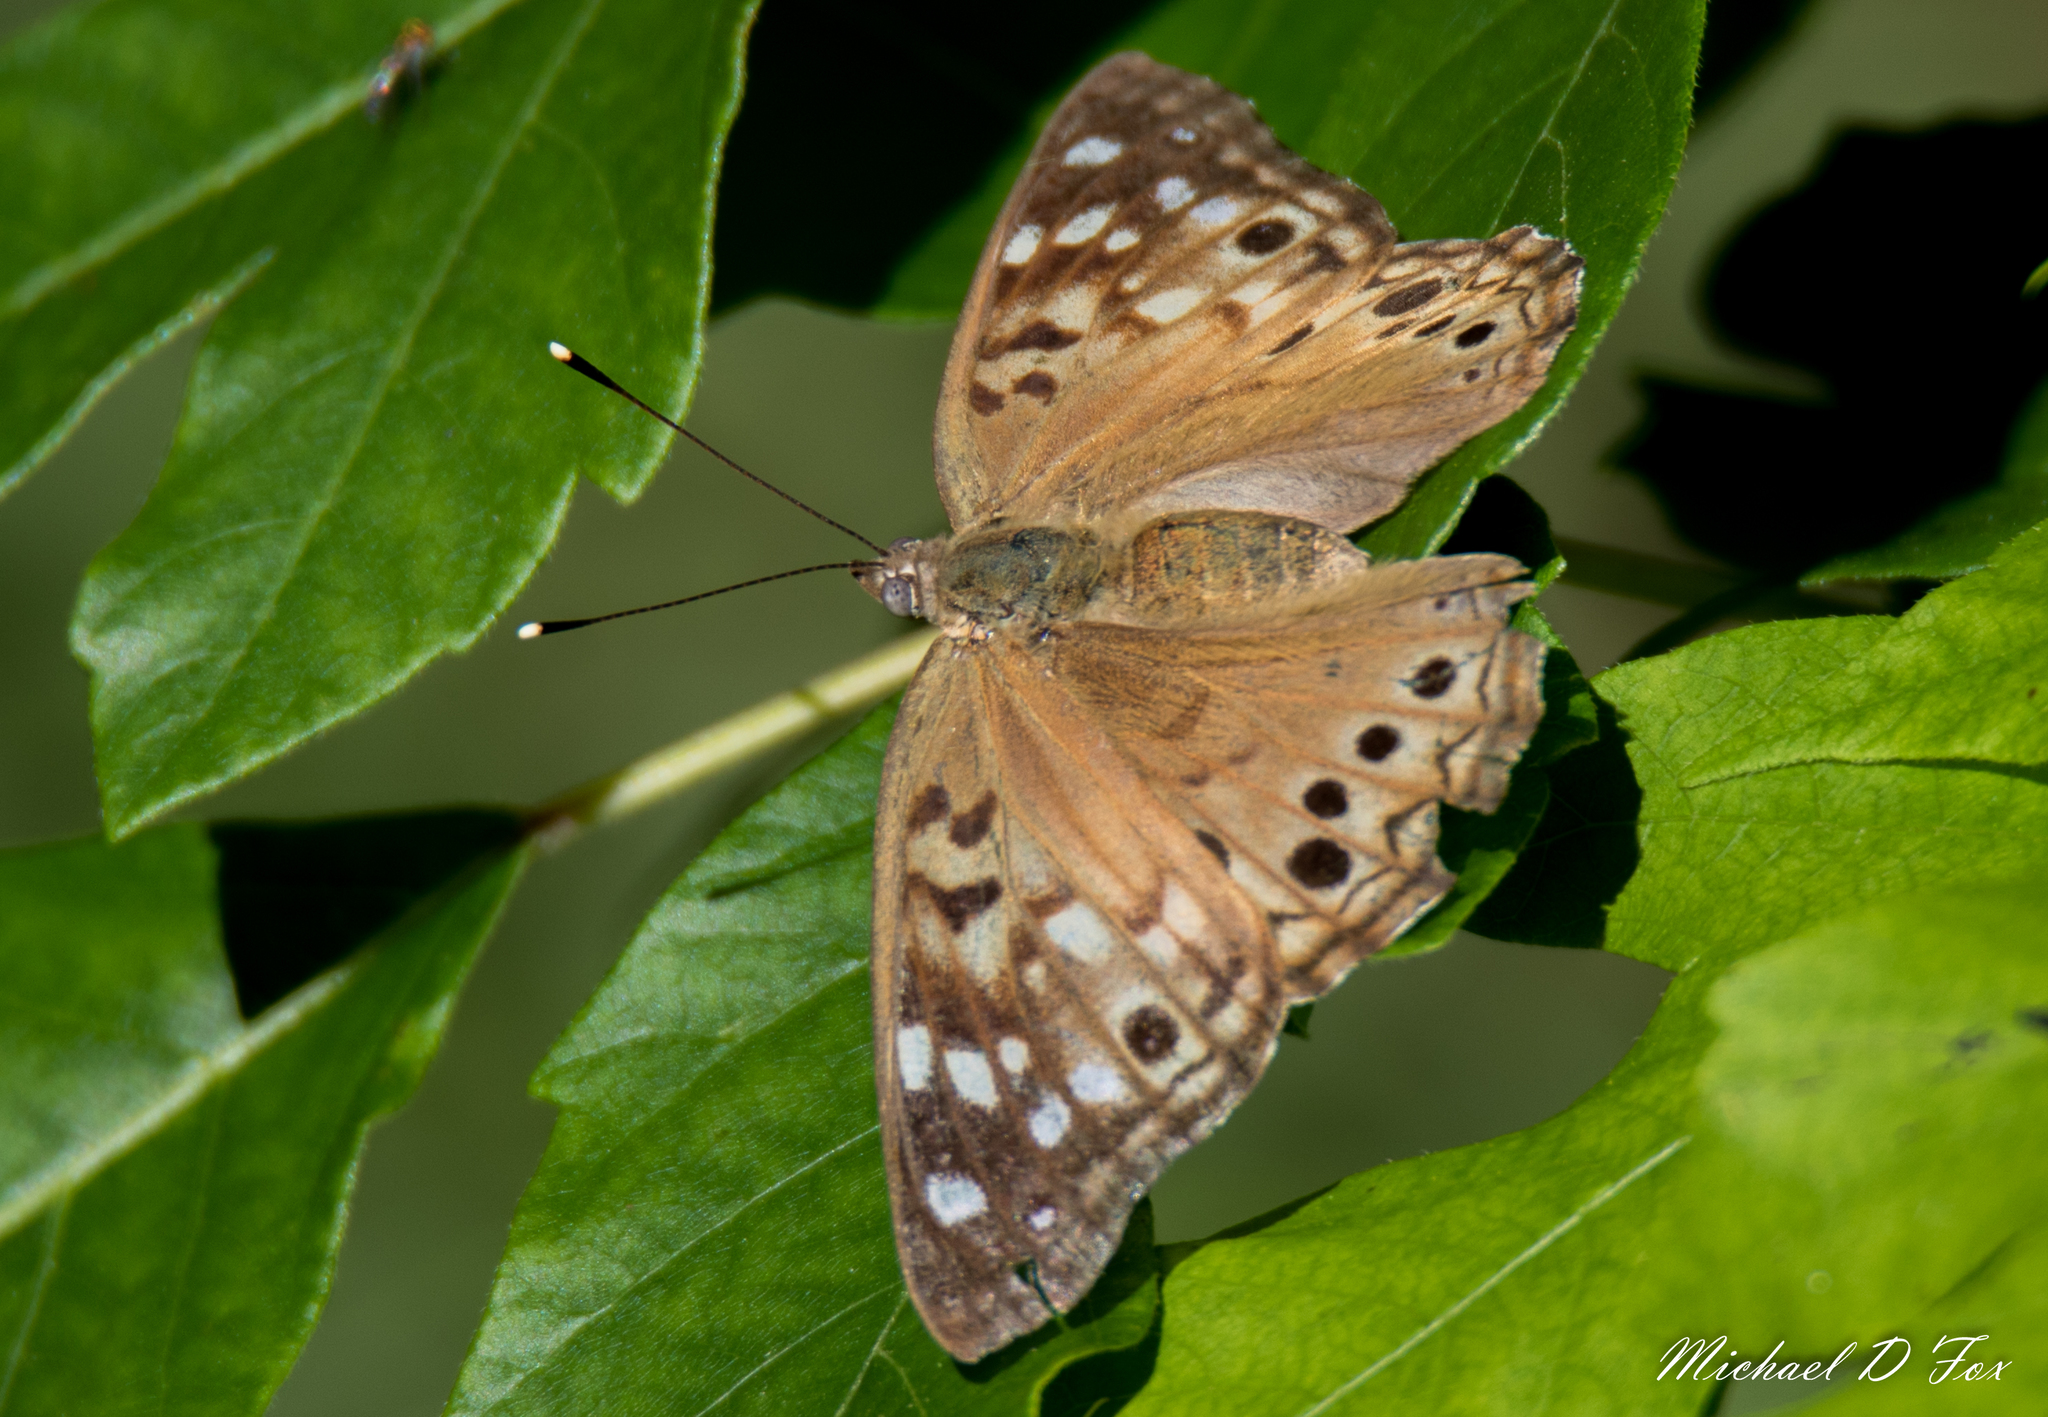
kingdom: Animalia
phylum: Arthropoda
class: Insecta
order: Lepidoptera
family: Nymphalidae
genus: Asterocampa
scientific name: Asterocampa celtis
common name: Hackberry emperor
